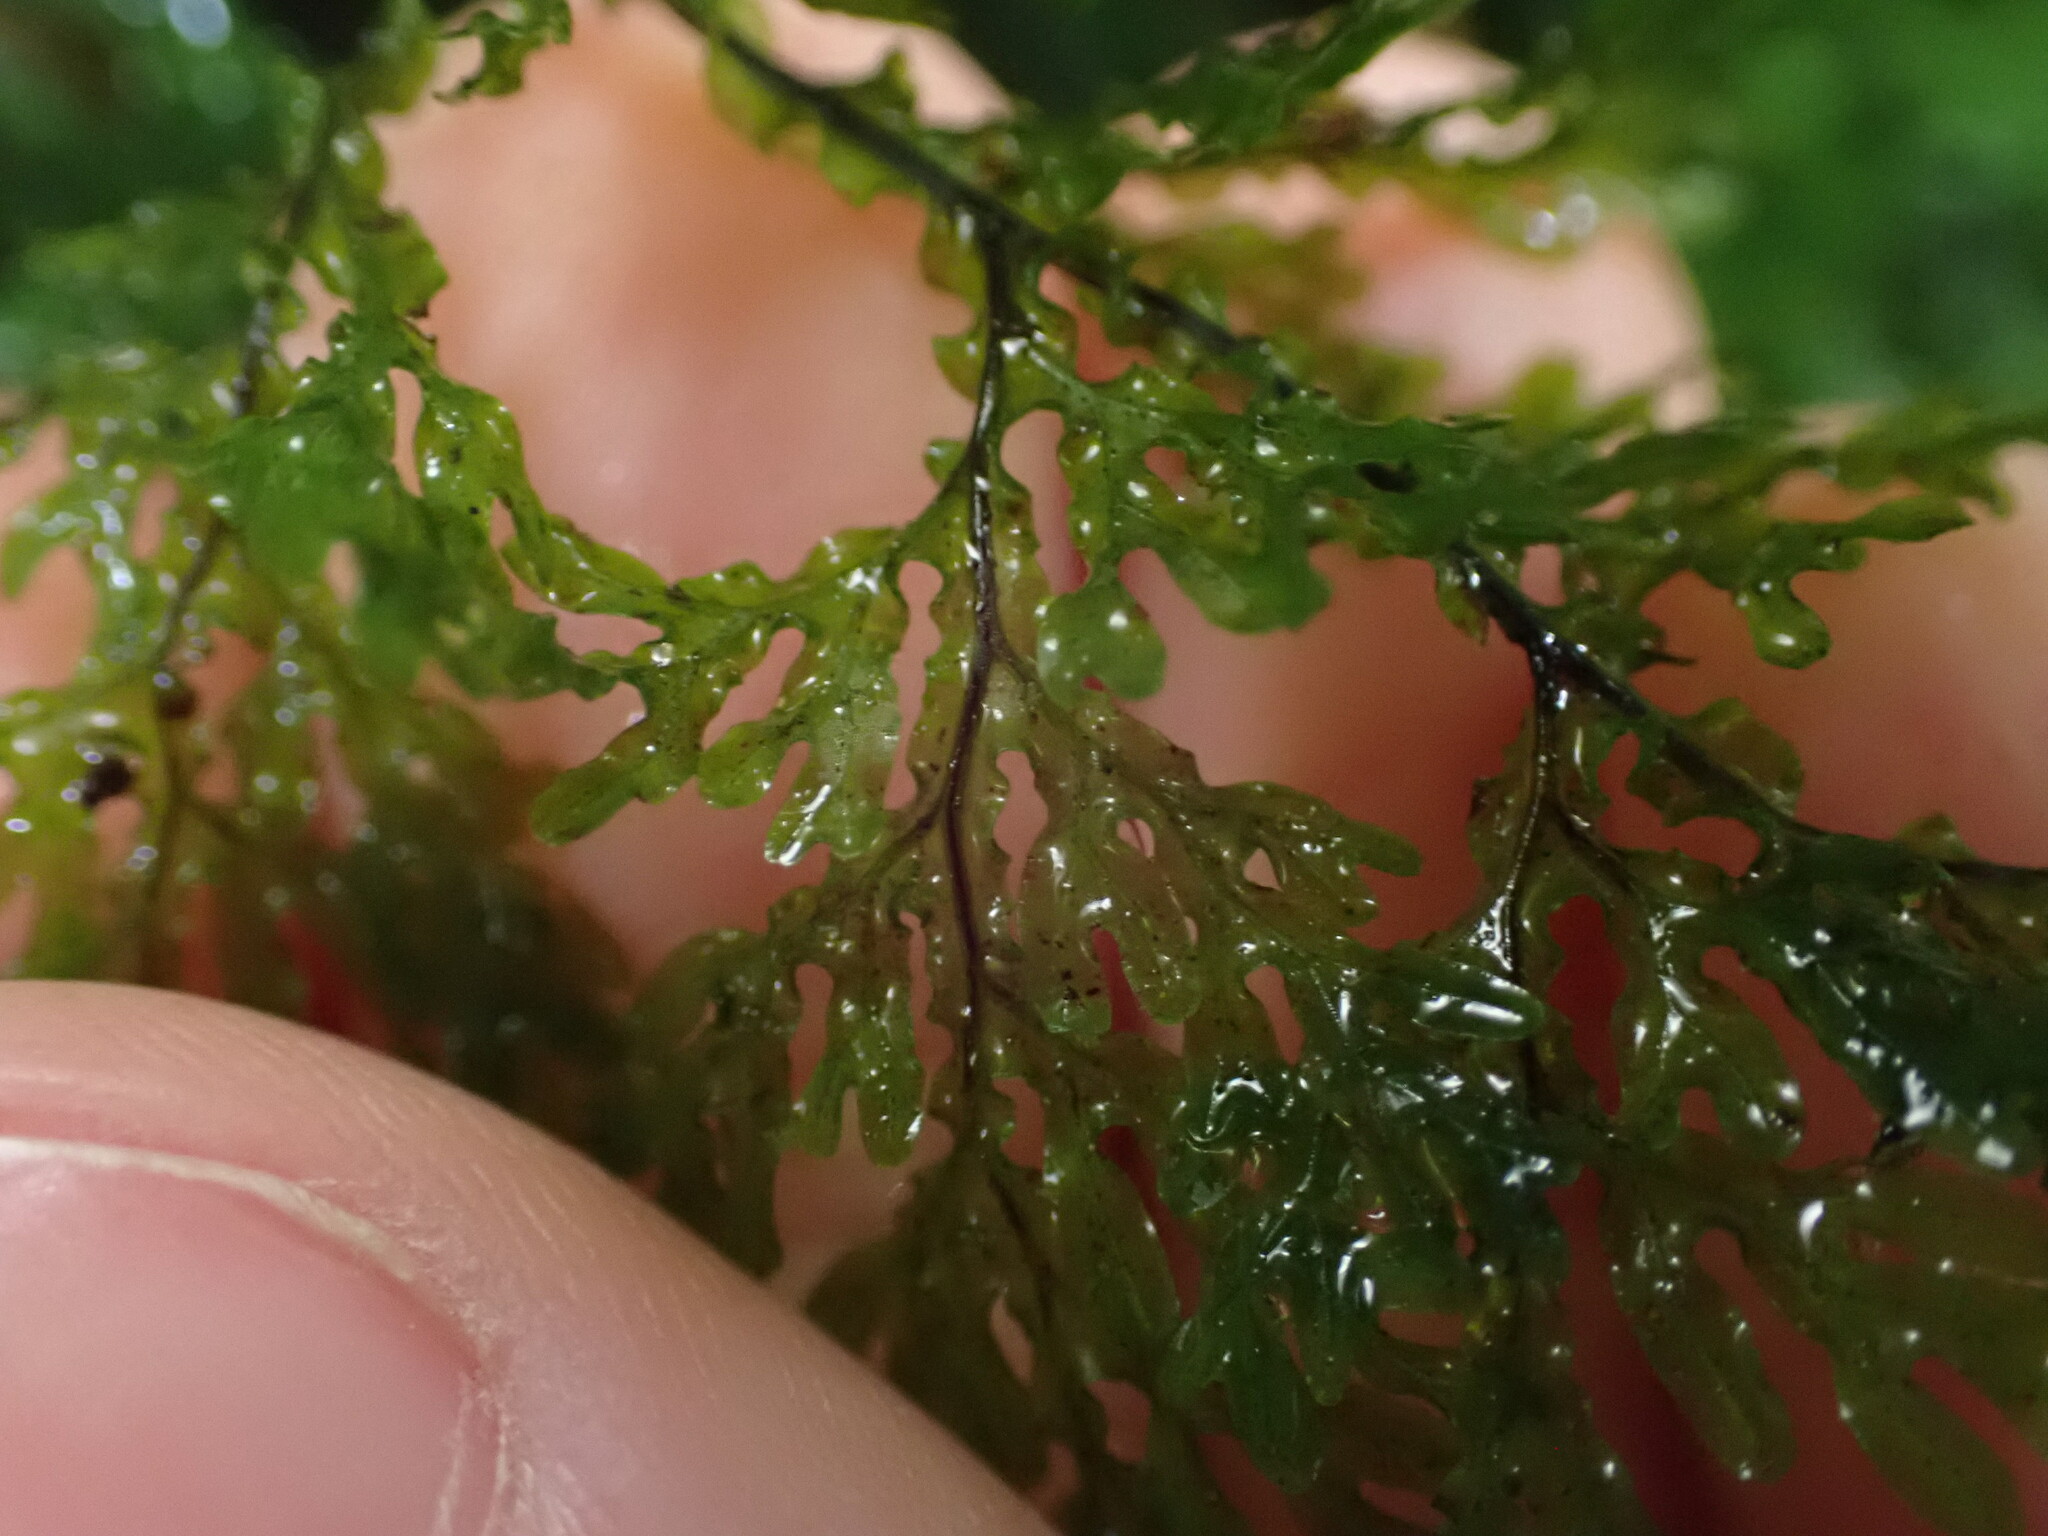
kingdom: Plantae
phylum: Tracheophyta
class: Polypodiopsida
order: Hymenophyllales
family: Hymenophyllaceae
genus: Hymenophyllum
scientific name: Hymenophyllum flexuosum
